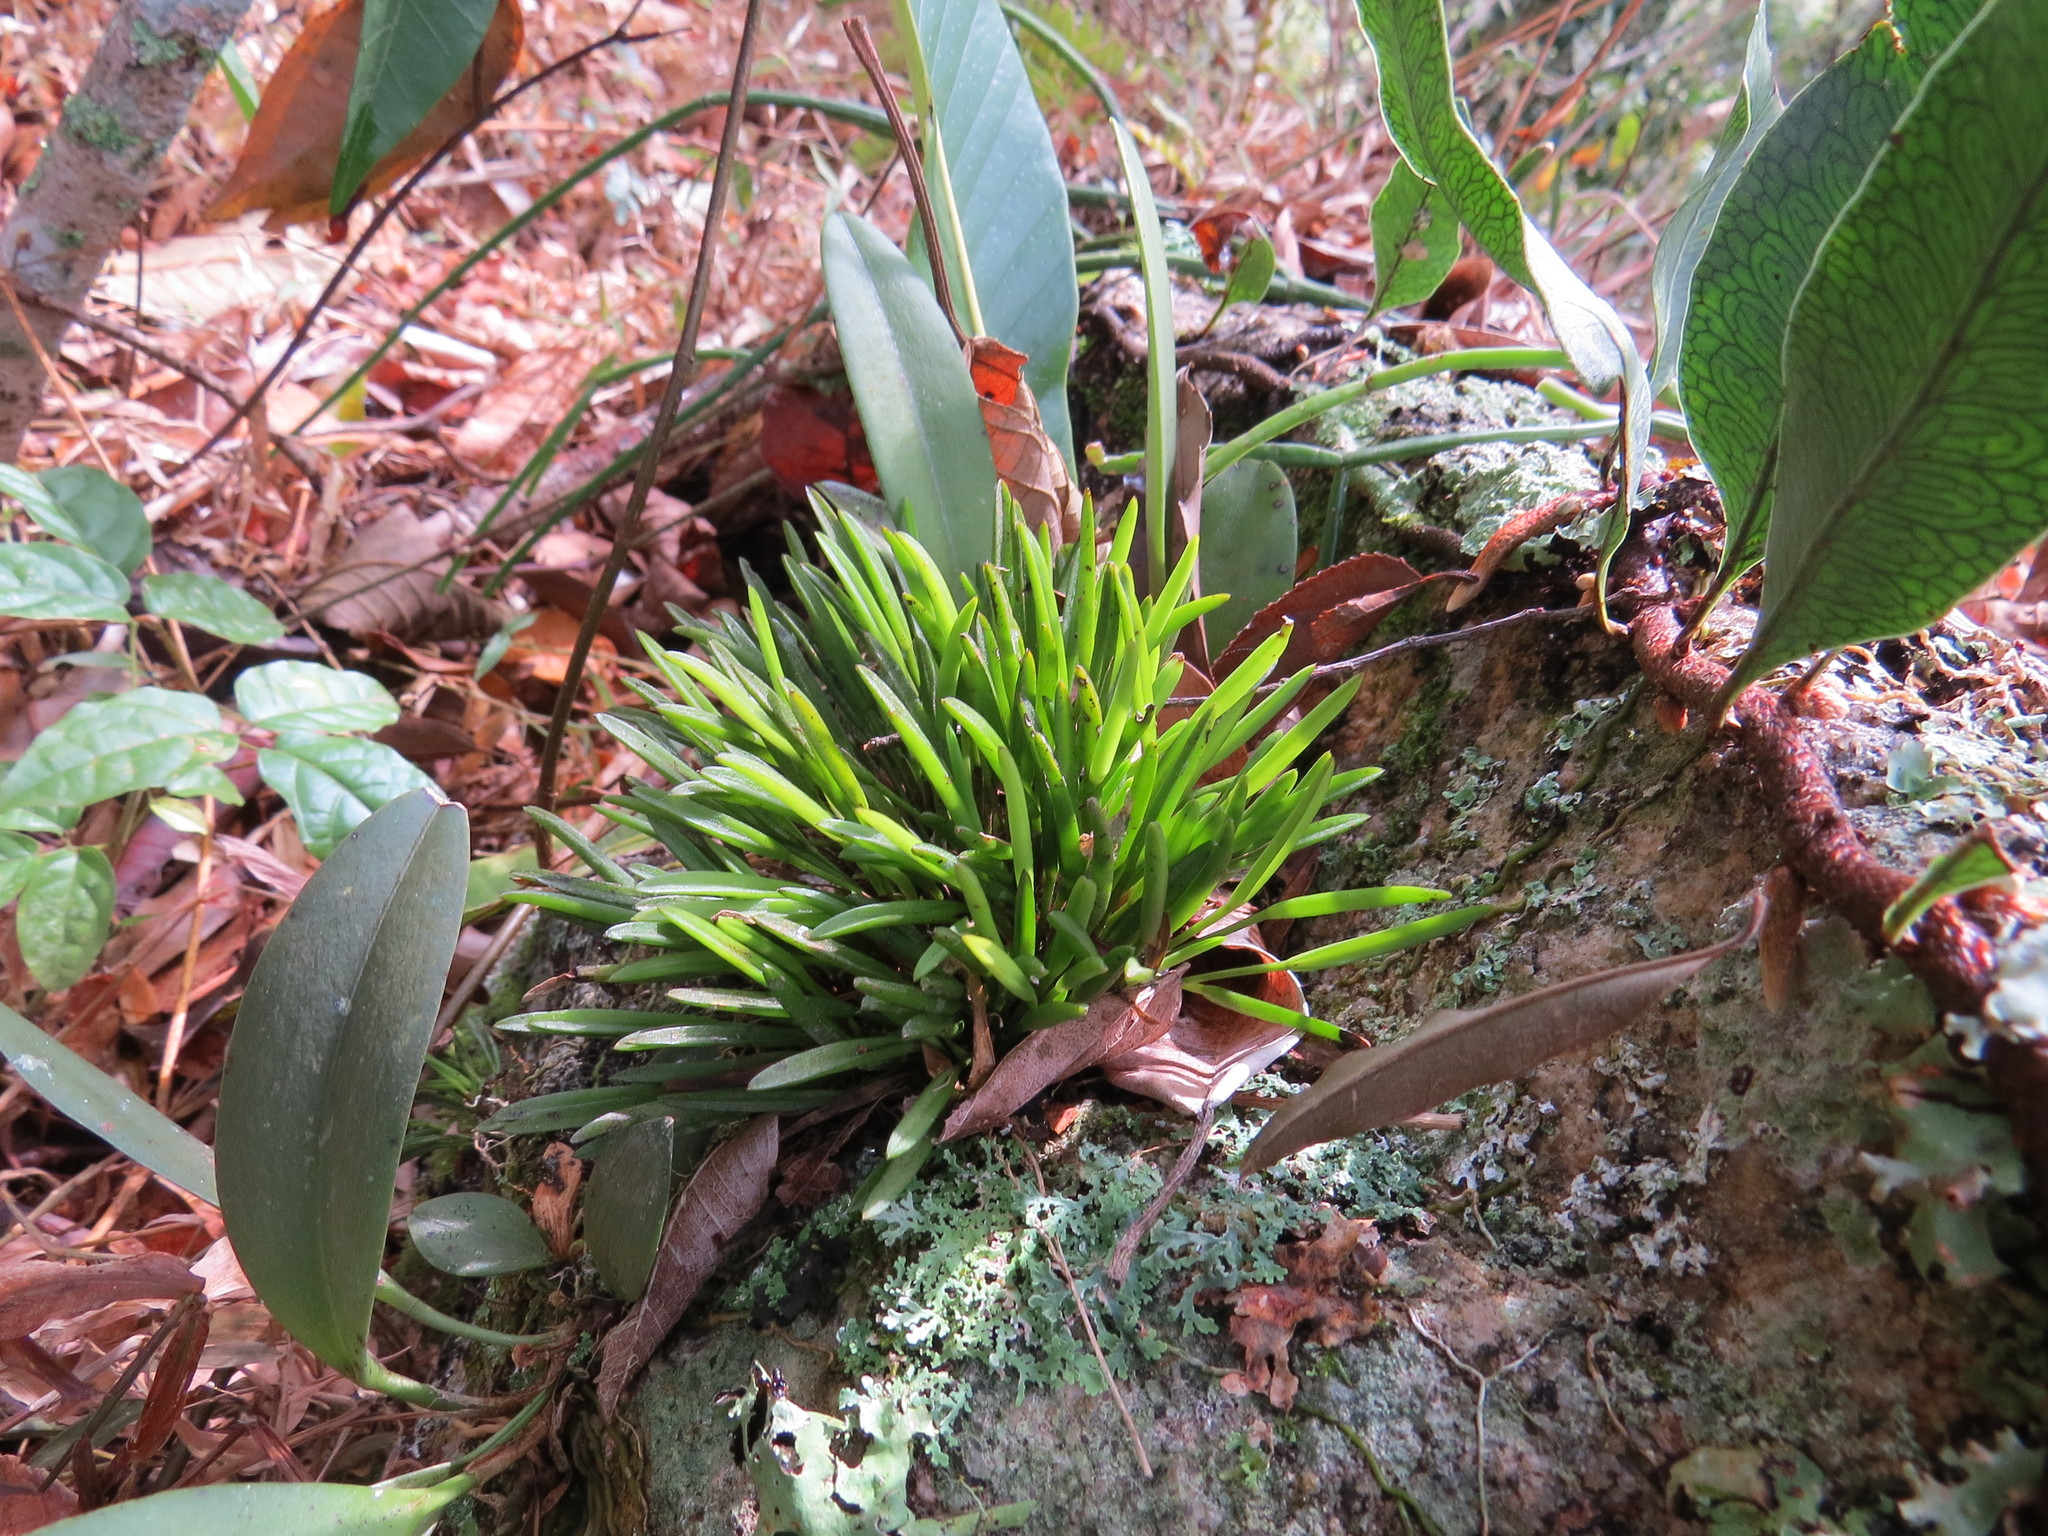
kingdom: Plantae
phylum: Tracheophyta
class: Liliopsida
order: Asparagales
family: Orchidaceae
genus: Acianthera
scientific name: Acianthera sonderiana
